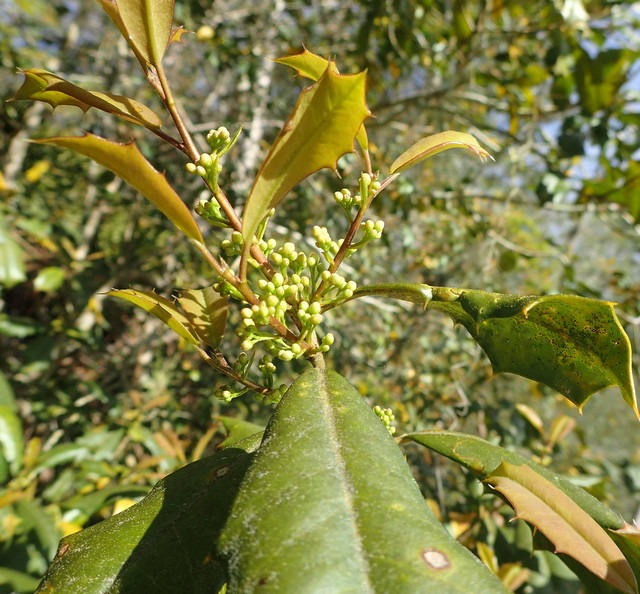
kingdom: Plantae
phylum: Tracheophyta
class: Magnoliopsida
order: Aquifoliales
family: Aquifoliaceae
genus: Ilex
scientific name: Ilex opaca
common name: American holly
